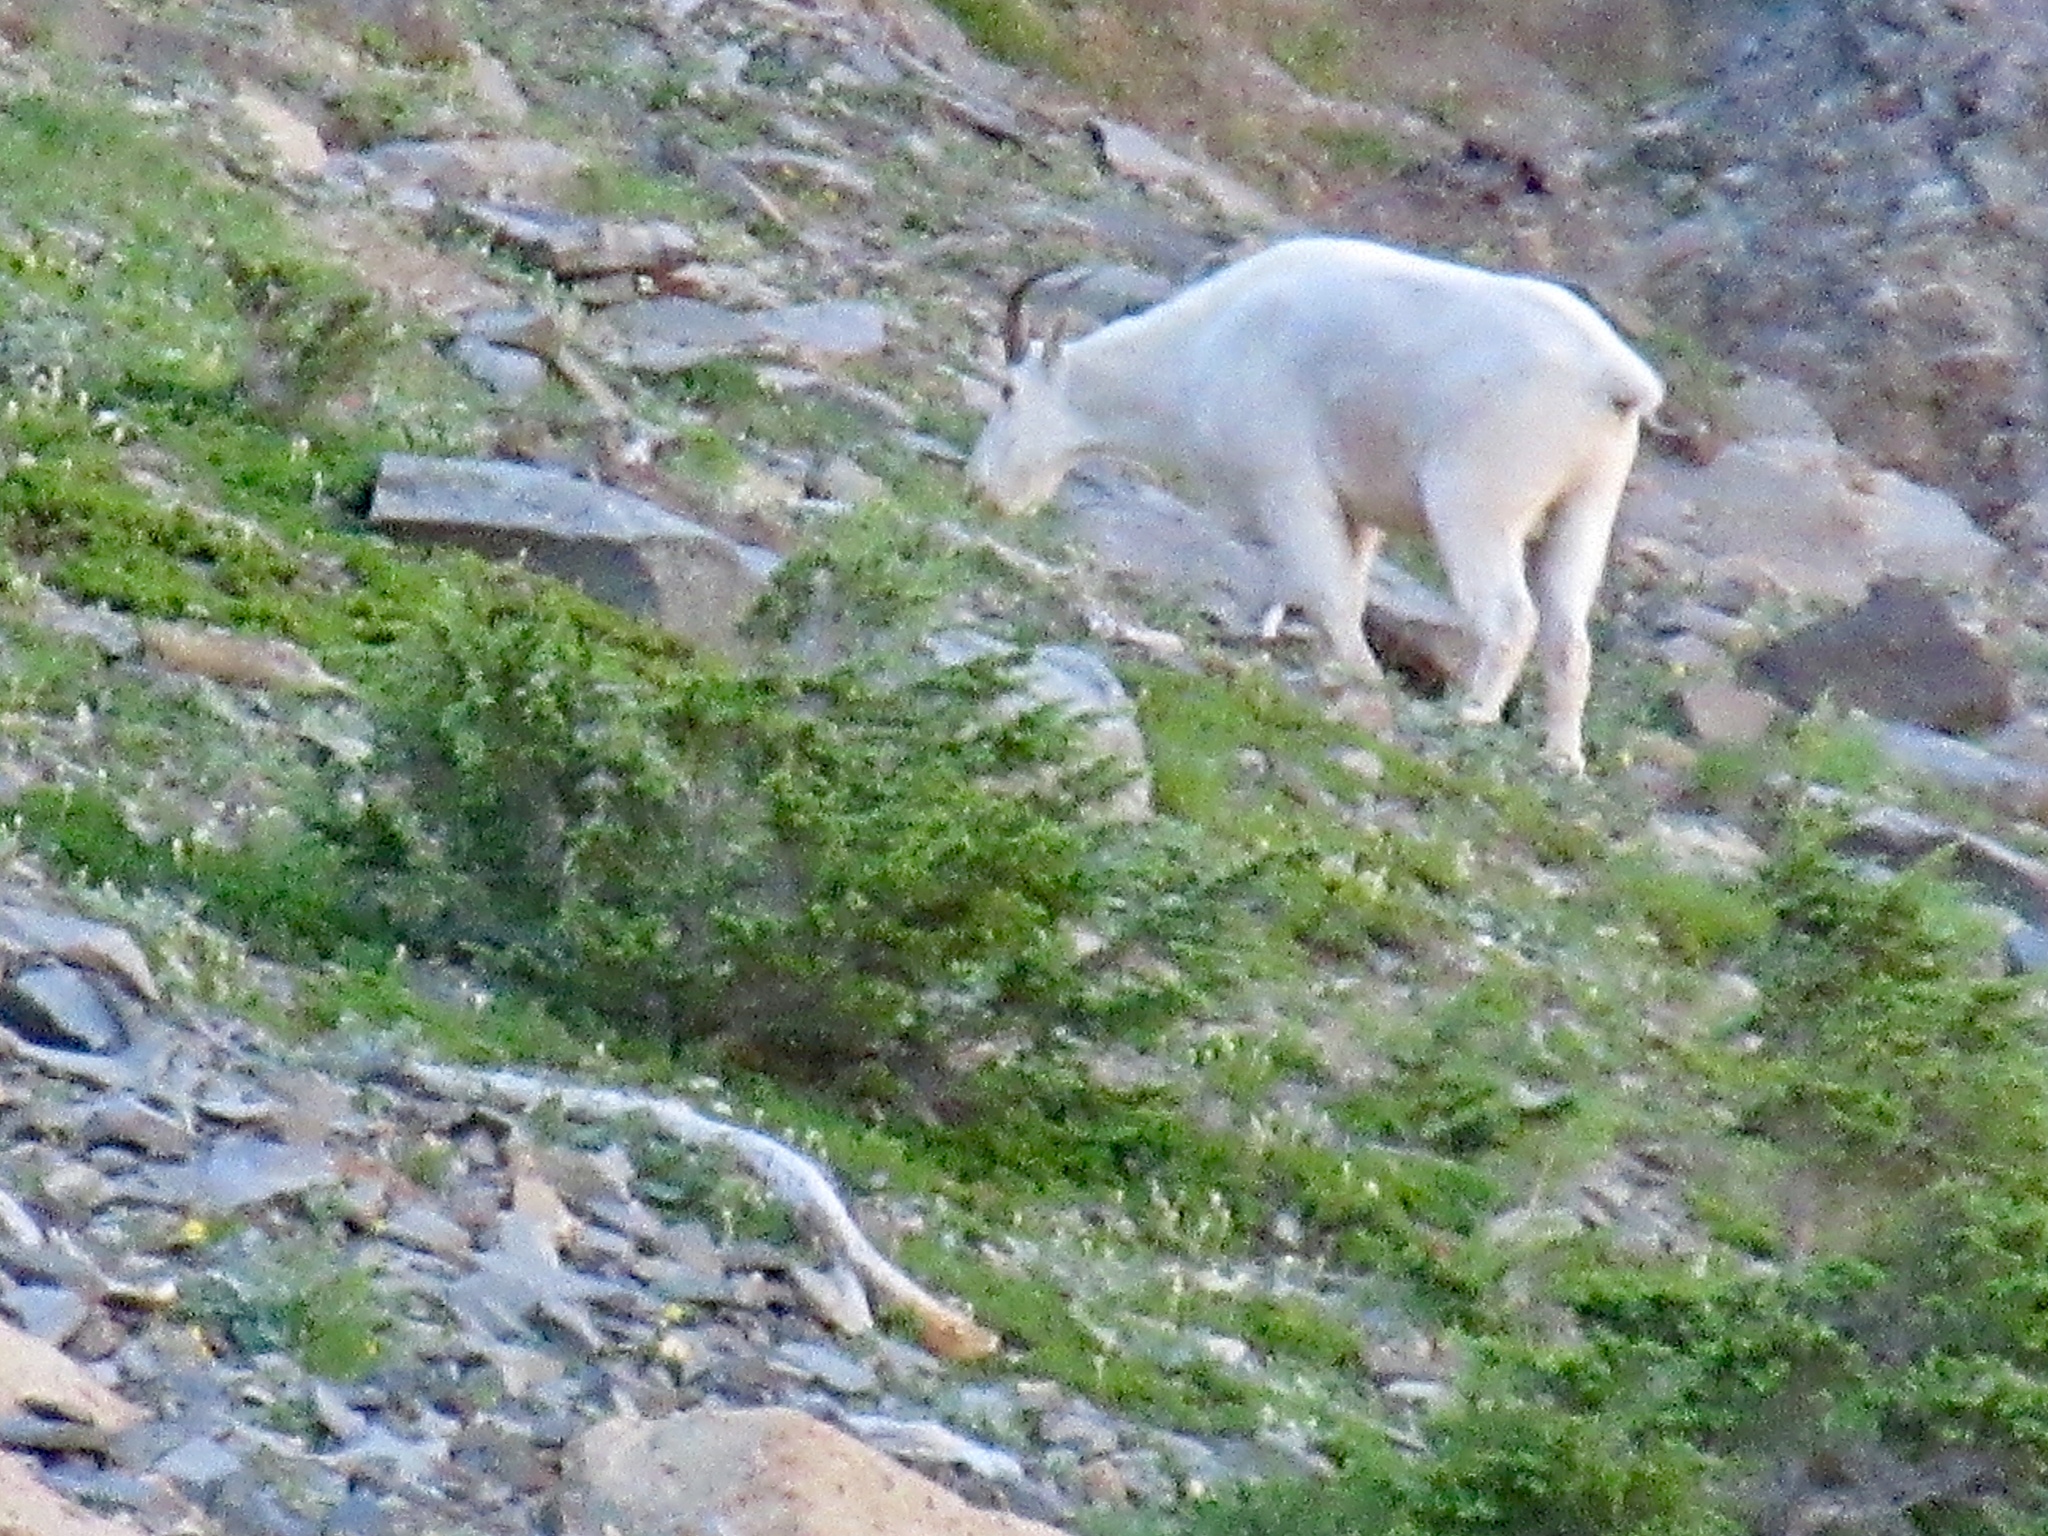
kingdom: Animalia
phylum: Chordata
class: Mammalia
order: Artiodactyla
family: Bovidae
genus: Oreamnos
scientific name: Oreamnos americanus
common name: Mountain goat
